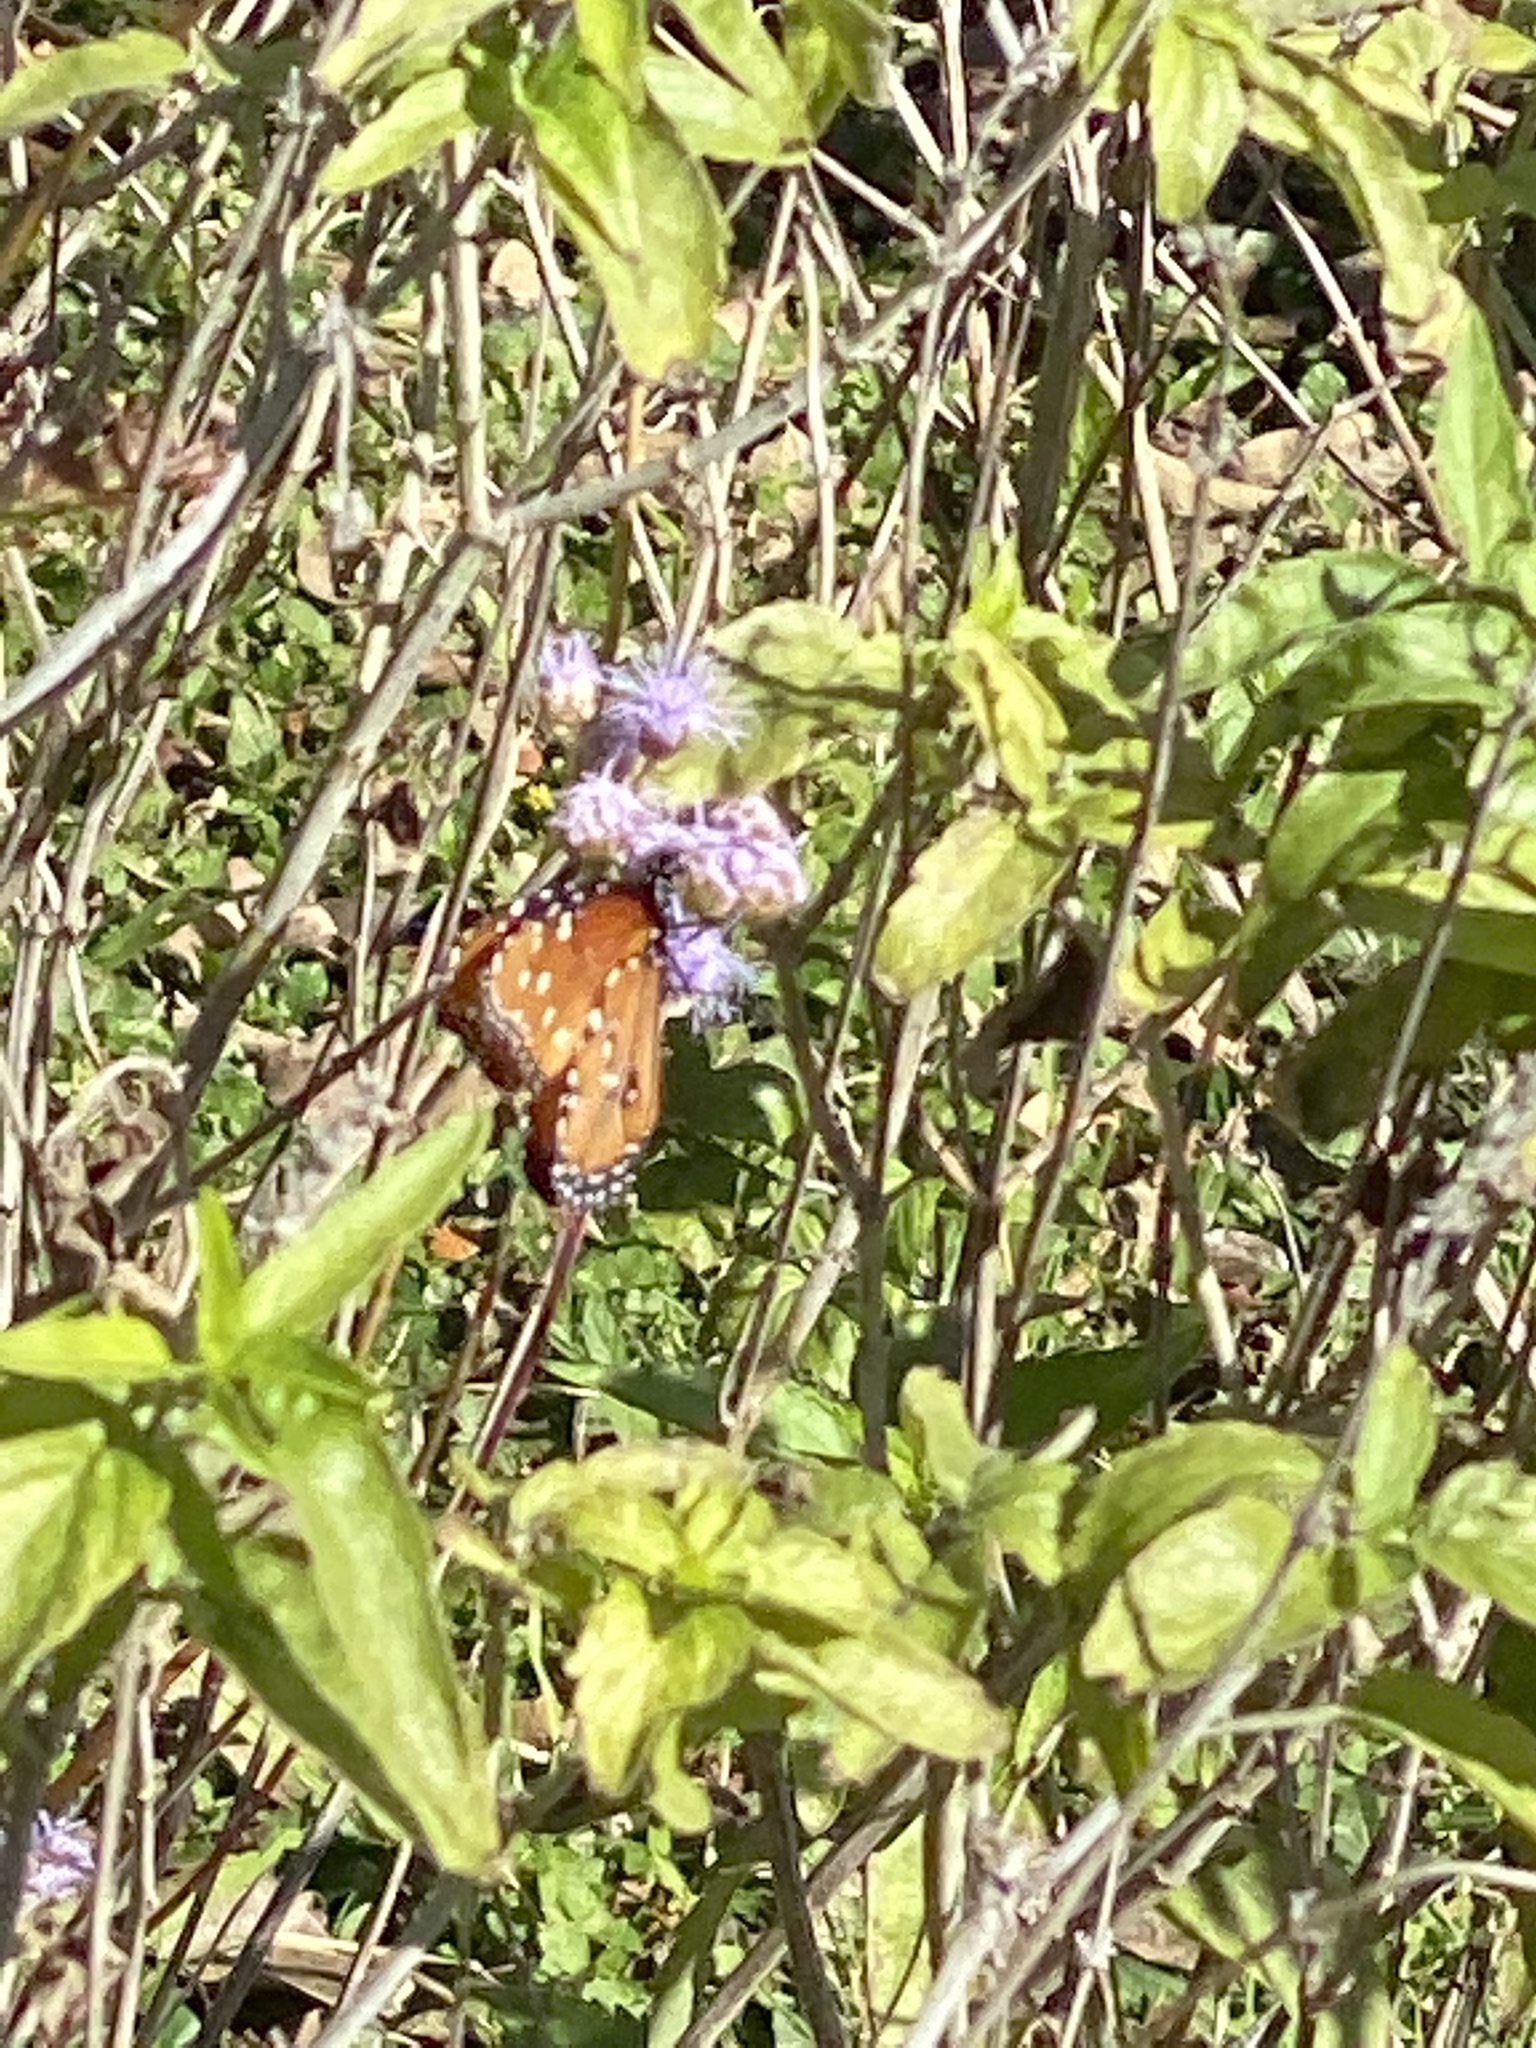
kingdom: Animalia
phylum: Arthropoda
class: Insecta
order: Lepidoptera
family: Nymphalidae
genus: Danaus
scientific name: Danaus gilippus
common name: Queen
